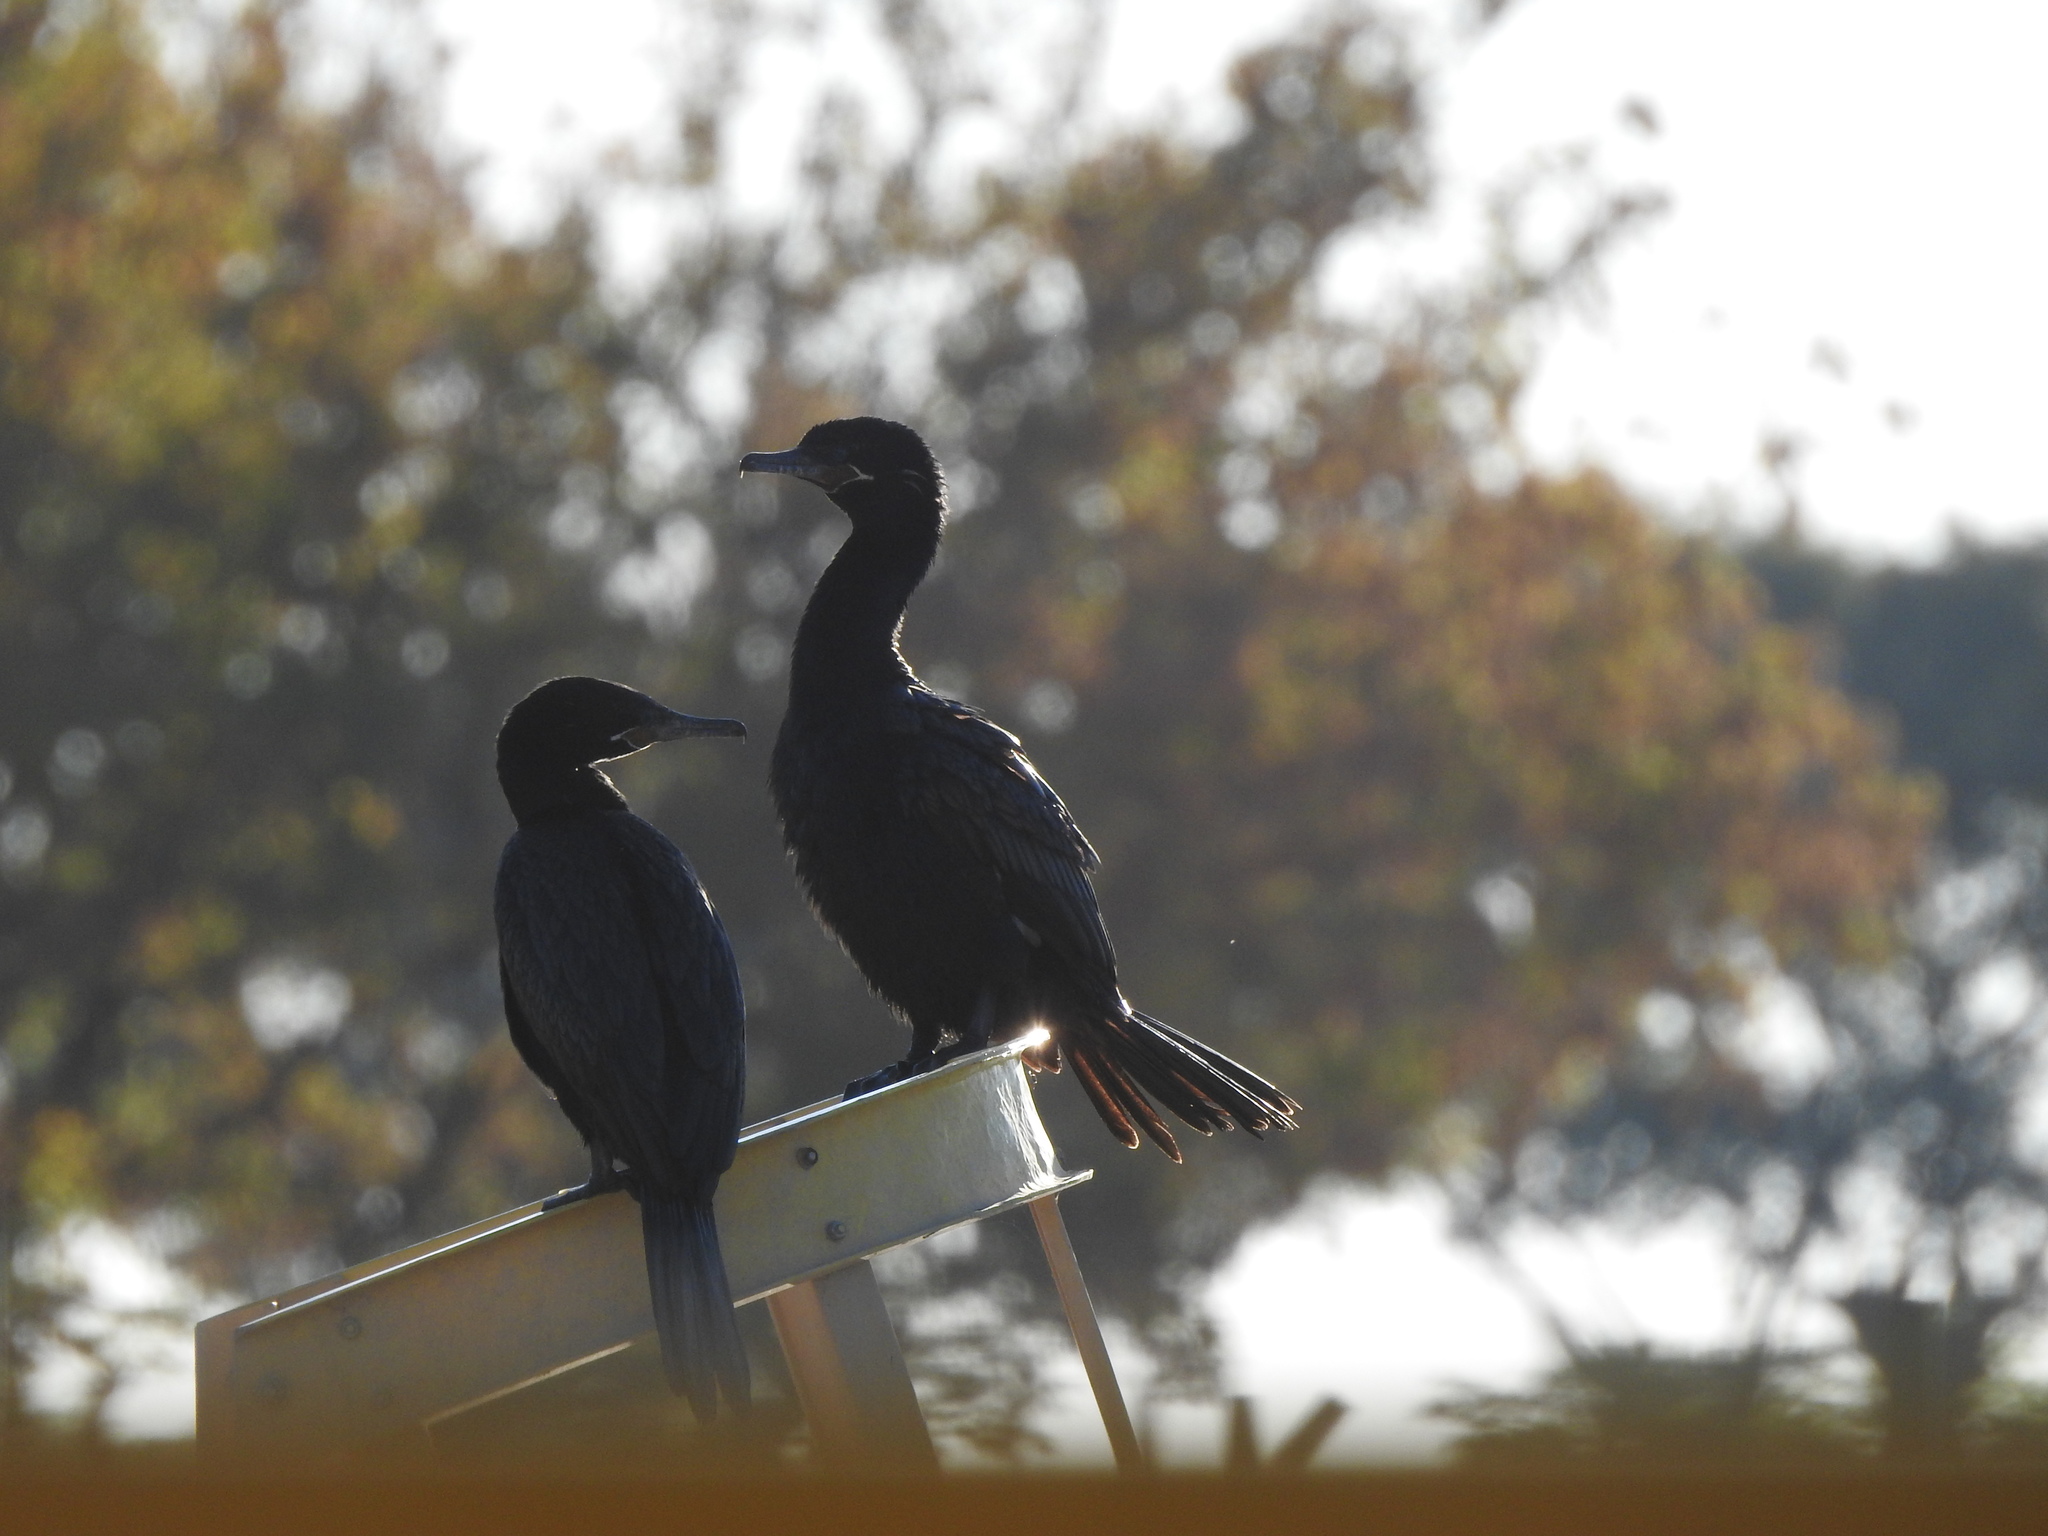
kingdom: Animalia
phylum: Chordata
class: Aves
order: Suliformes
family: Phalacrocoracidae
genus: Phalacrocorax
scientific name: Phalacrocorax brasilianus
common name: Neotropic cormorant
